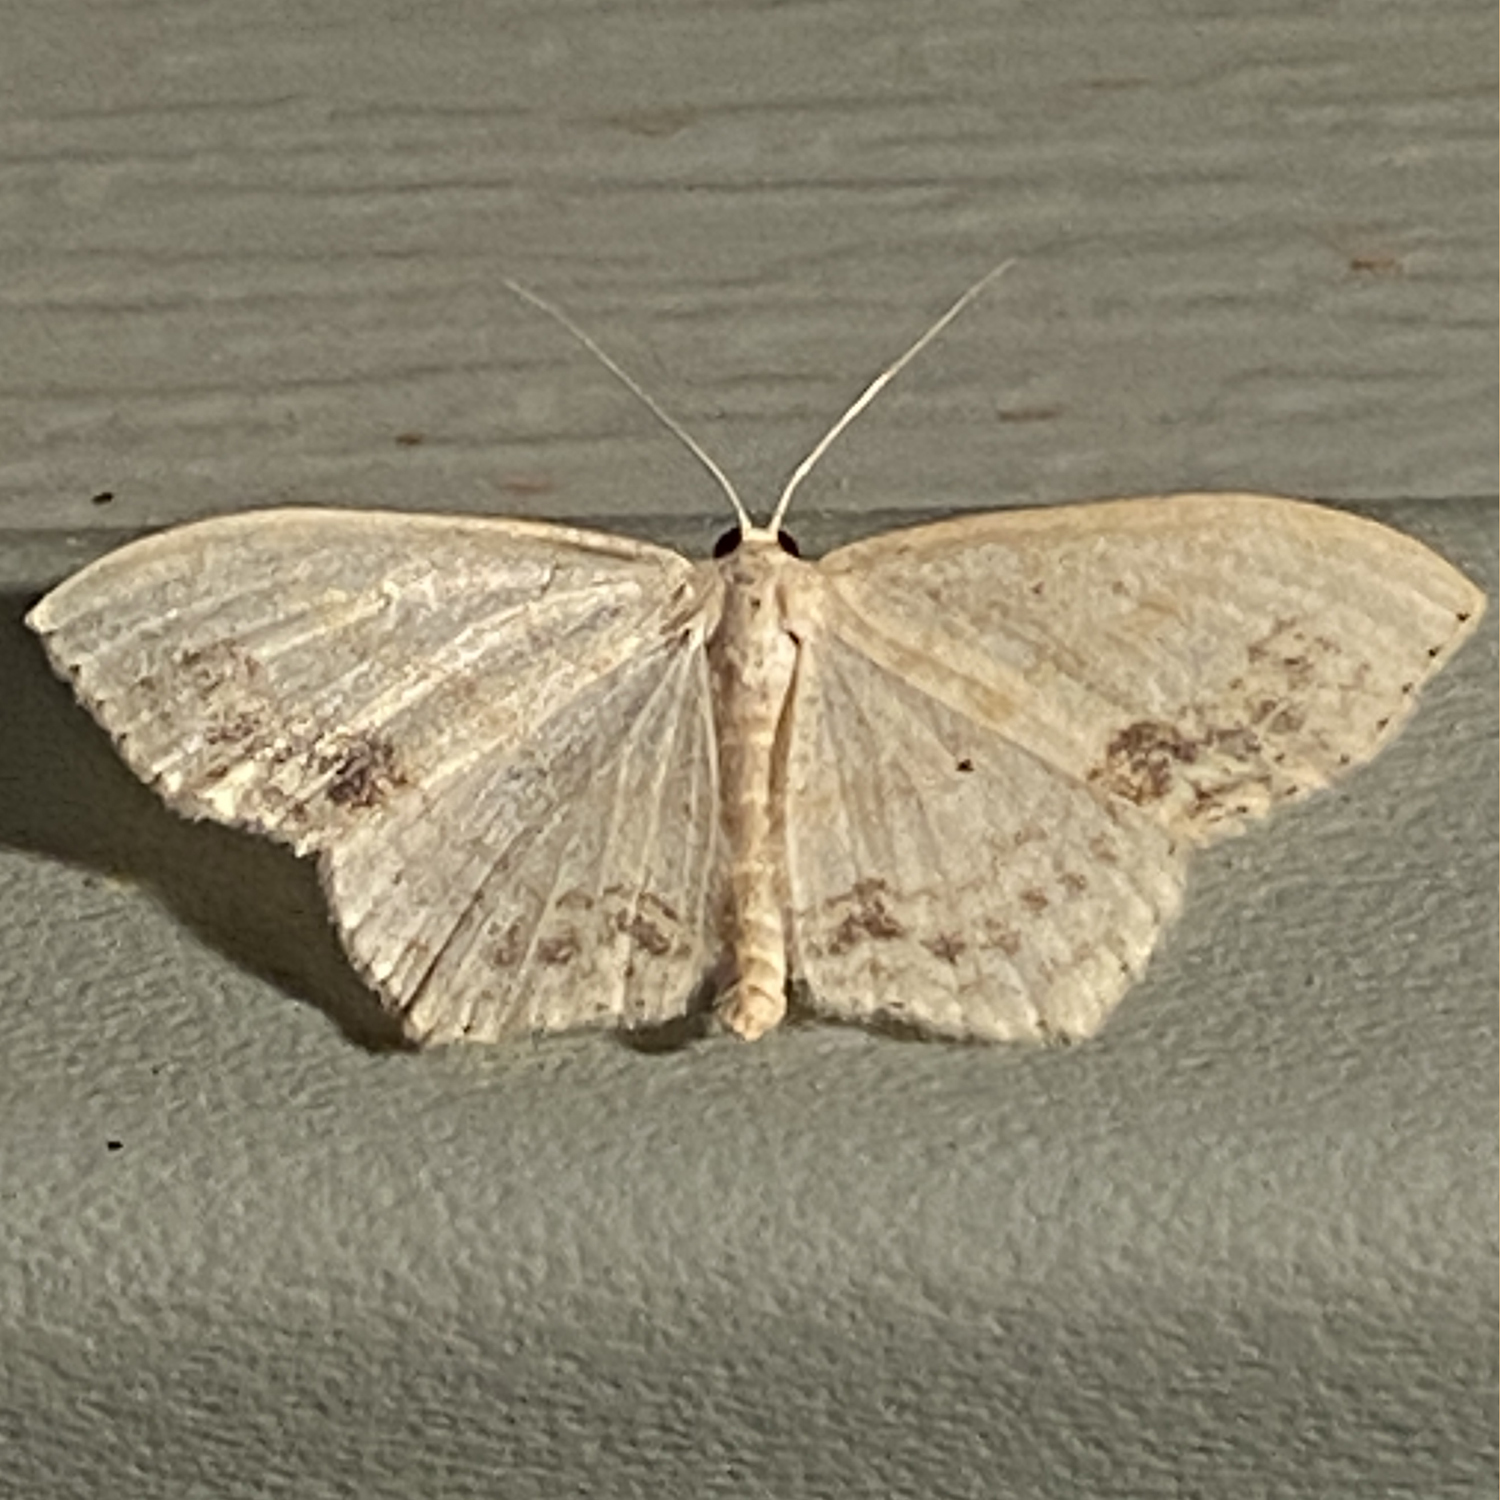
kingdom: Animalia
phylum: Arthropoda
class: Insecta
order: Lepidoptera
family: Geometridae
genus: Scopula
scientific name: Scopula limboundata
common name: Large lace border
